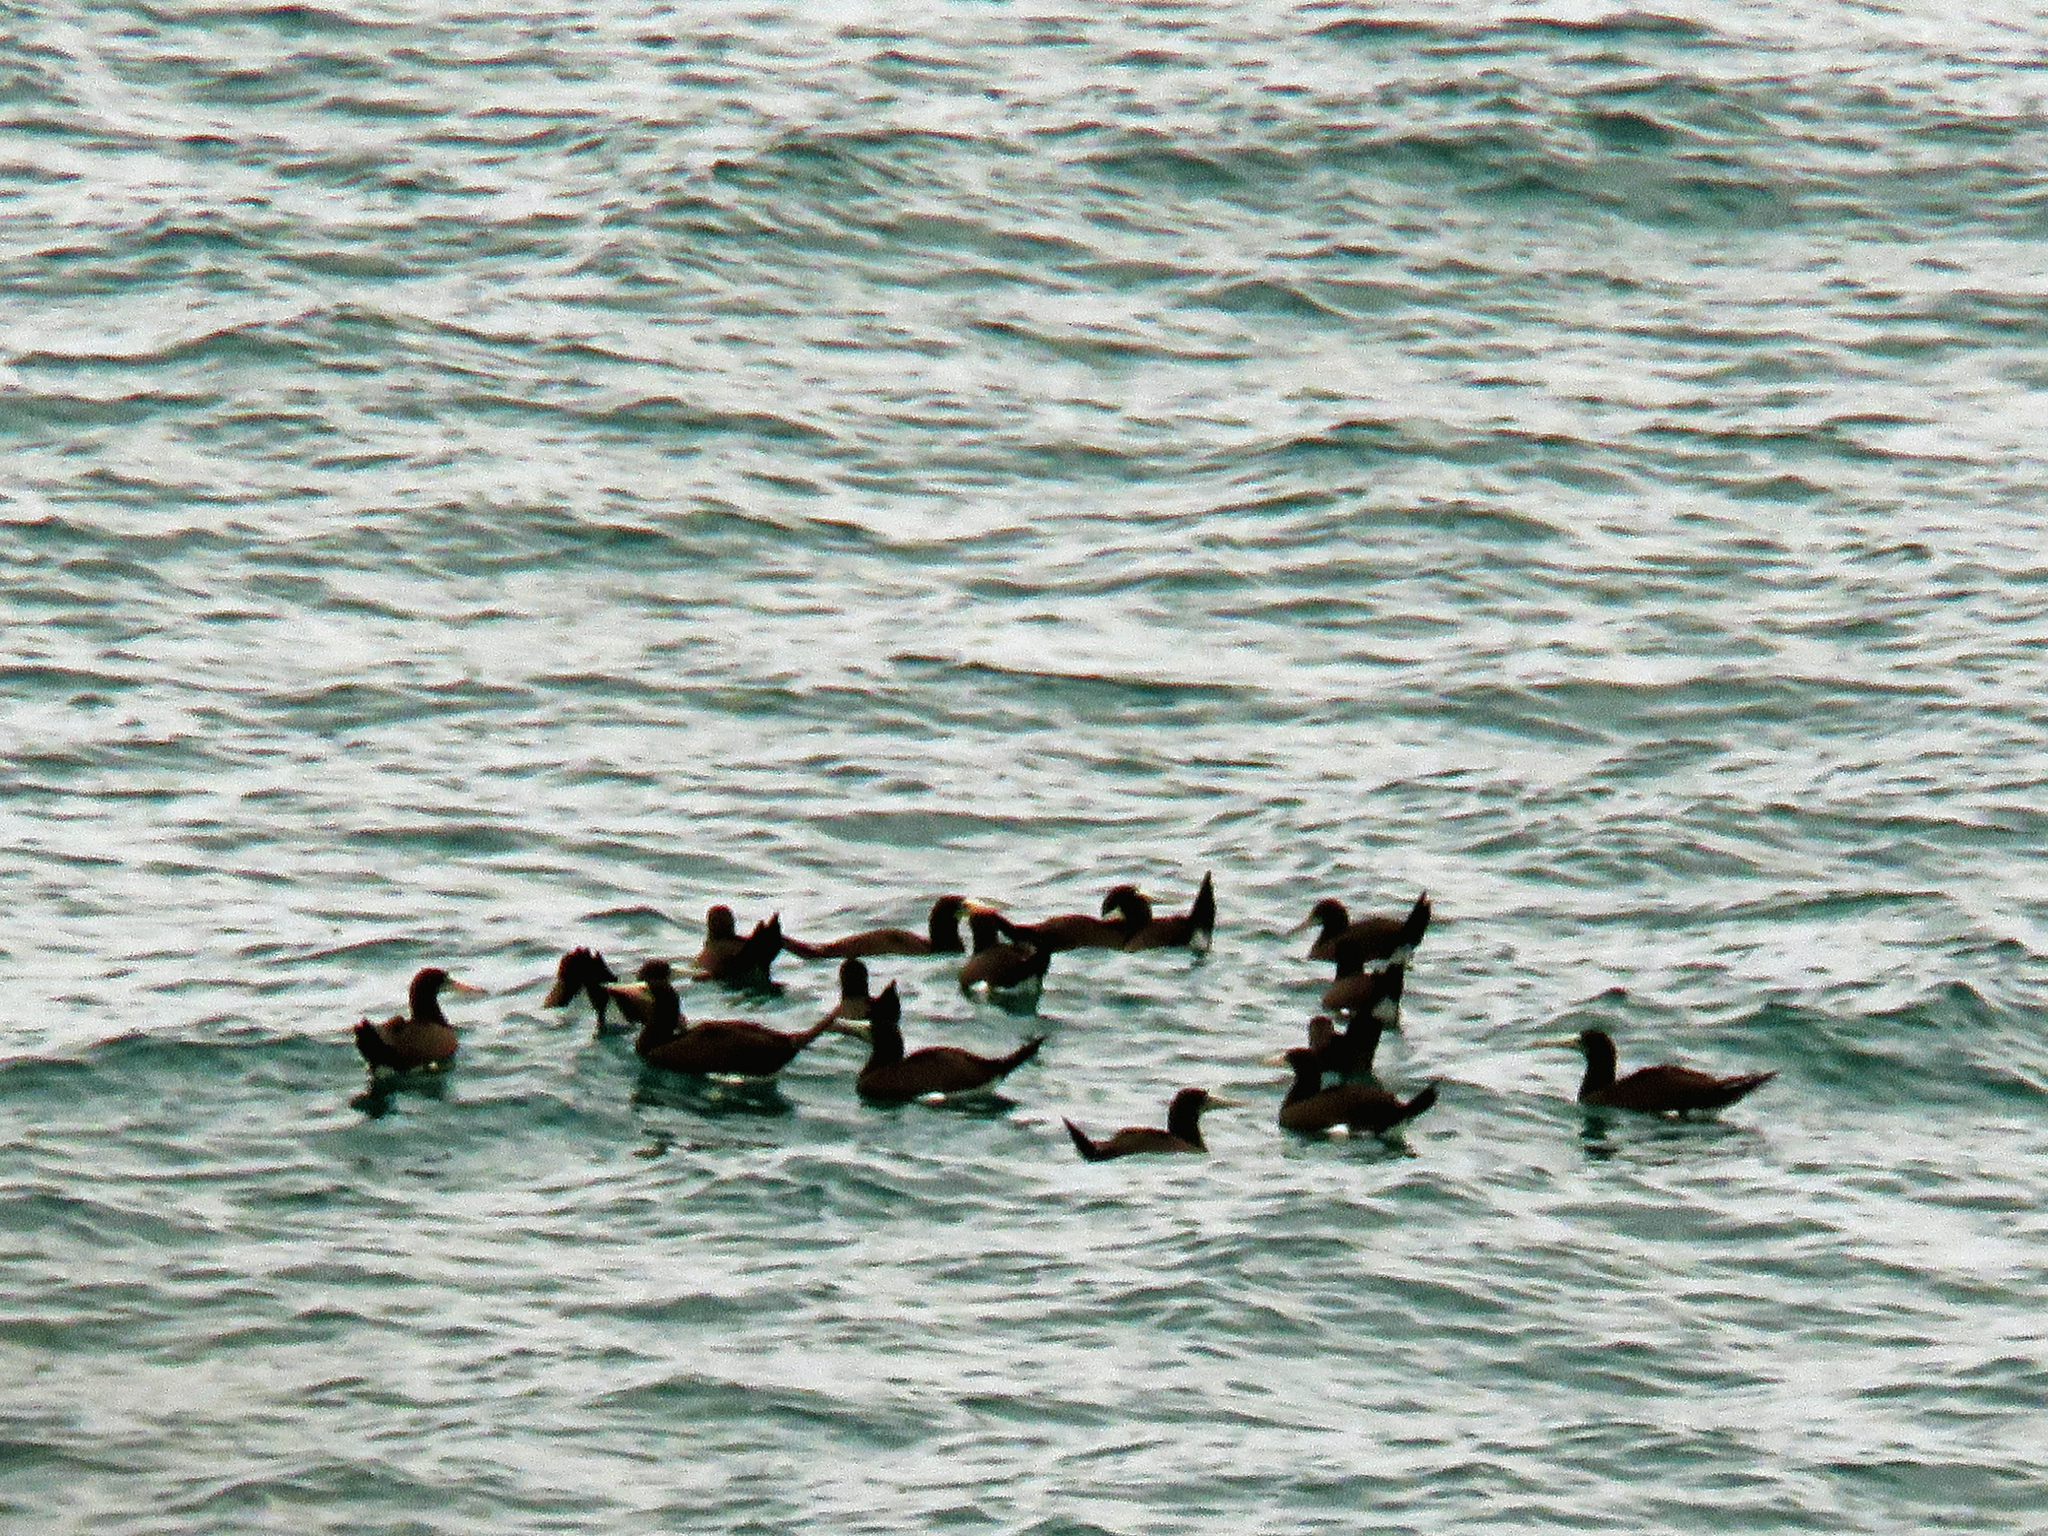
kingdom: Animalia
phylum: Chordata
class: Aves
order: Suliformes
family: Sulidae
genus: Sula
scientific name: Sula leucogaster
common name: Brown booby
